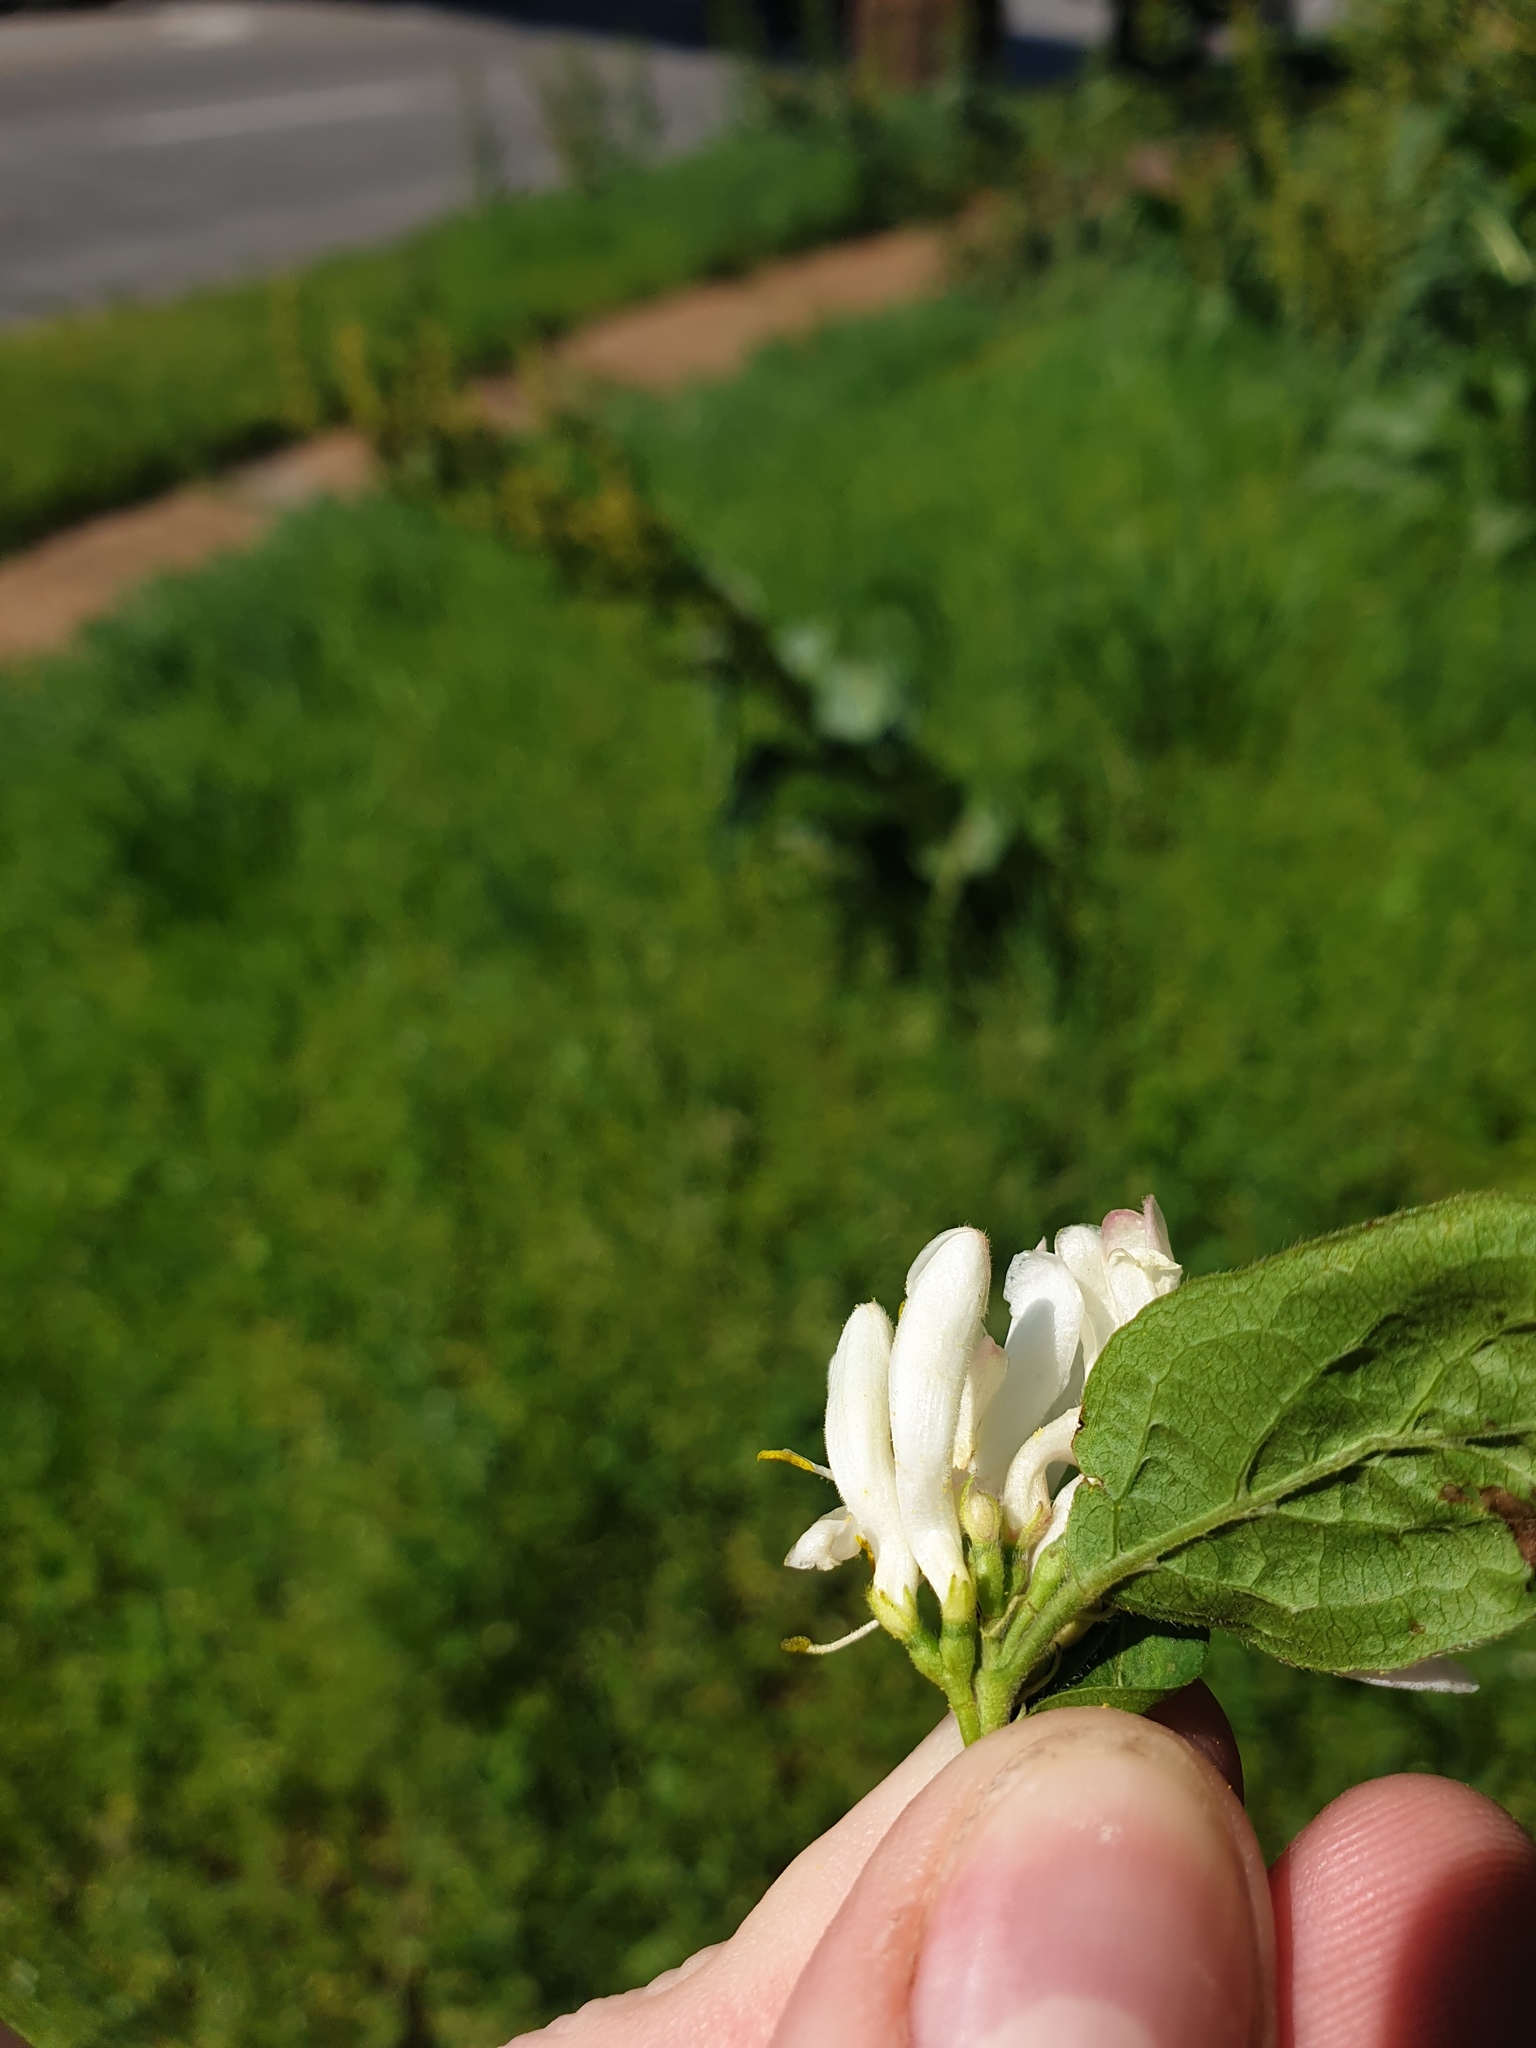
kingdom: Plantae
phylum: Tracheophyta
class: Magnoliopsida
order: Dipsacales
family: Caprifoliaceae
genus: Lonicera
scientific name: Lonicera maackii
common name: Amur honeysuckle
